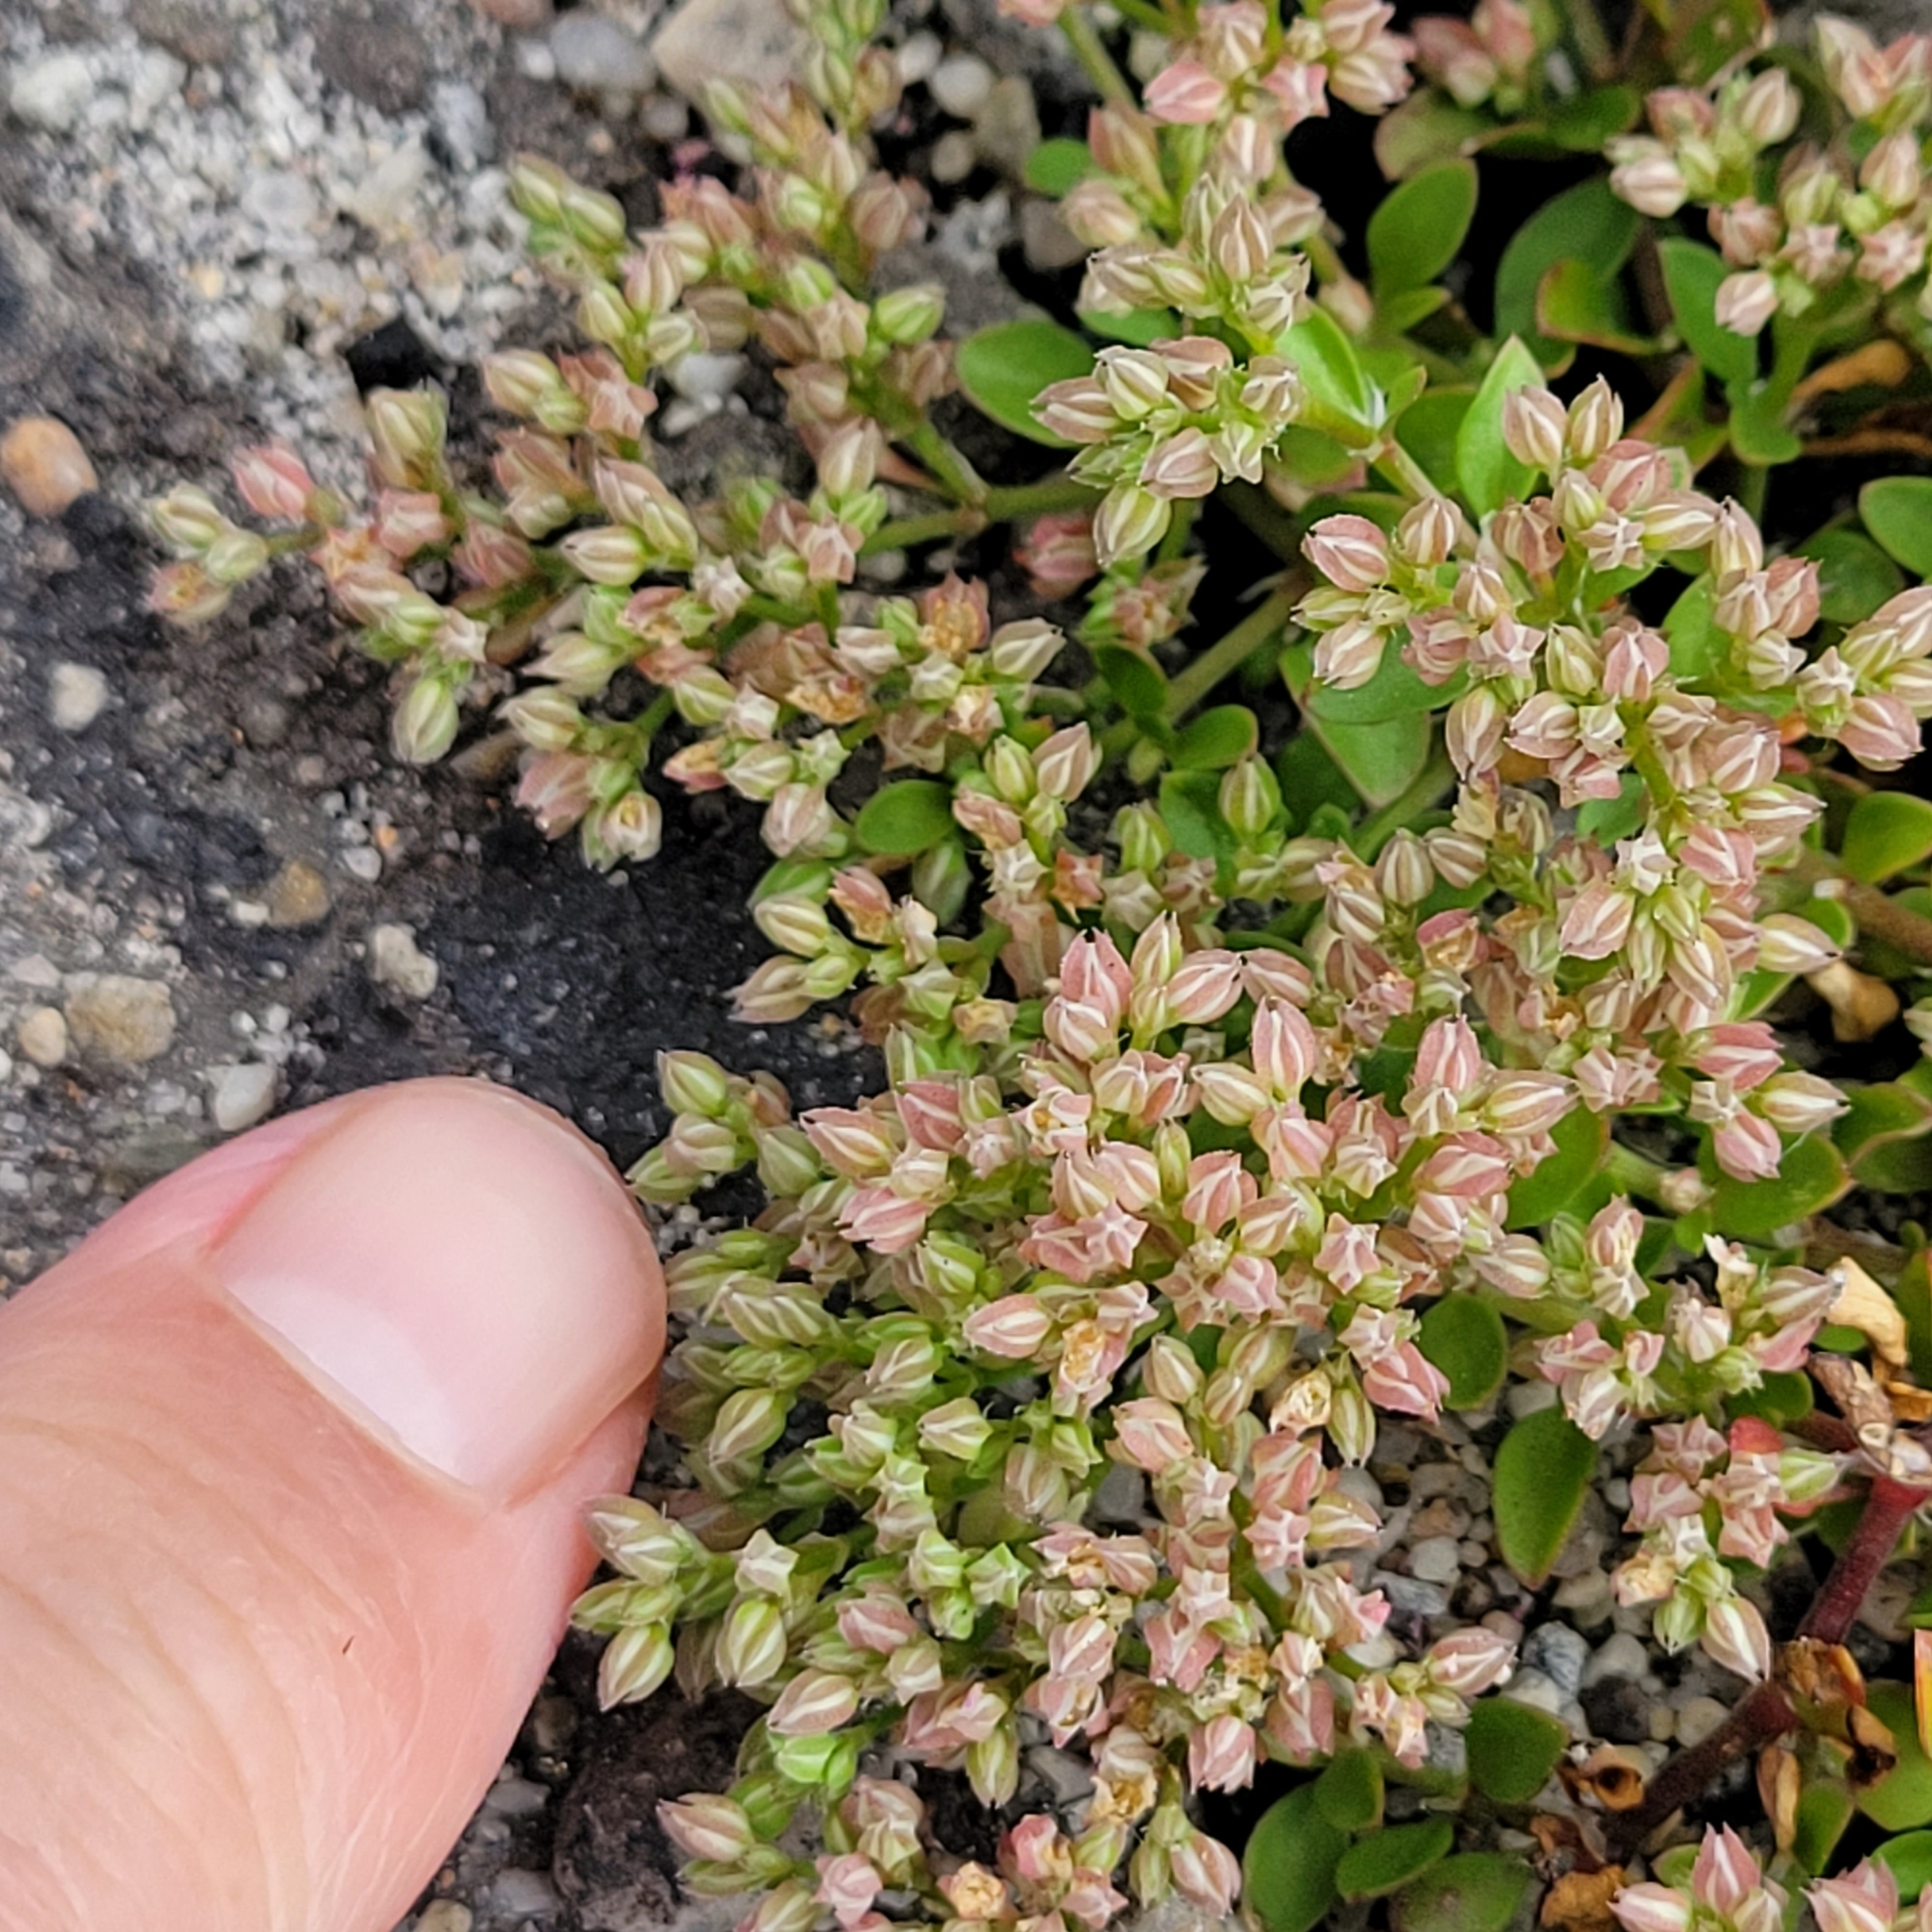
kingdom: Plantae
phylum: Tracheophyta
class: Magnoliopsida
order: Caryophyllales
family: Caryophyllaceae
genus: Polycarpon
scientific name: Polycarpon tetraphyllum
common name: Four-leaved all-seed
